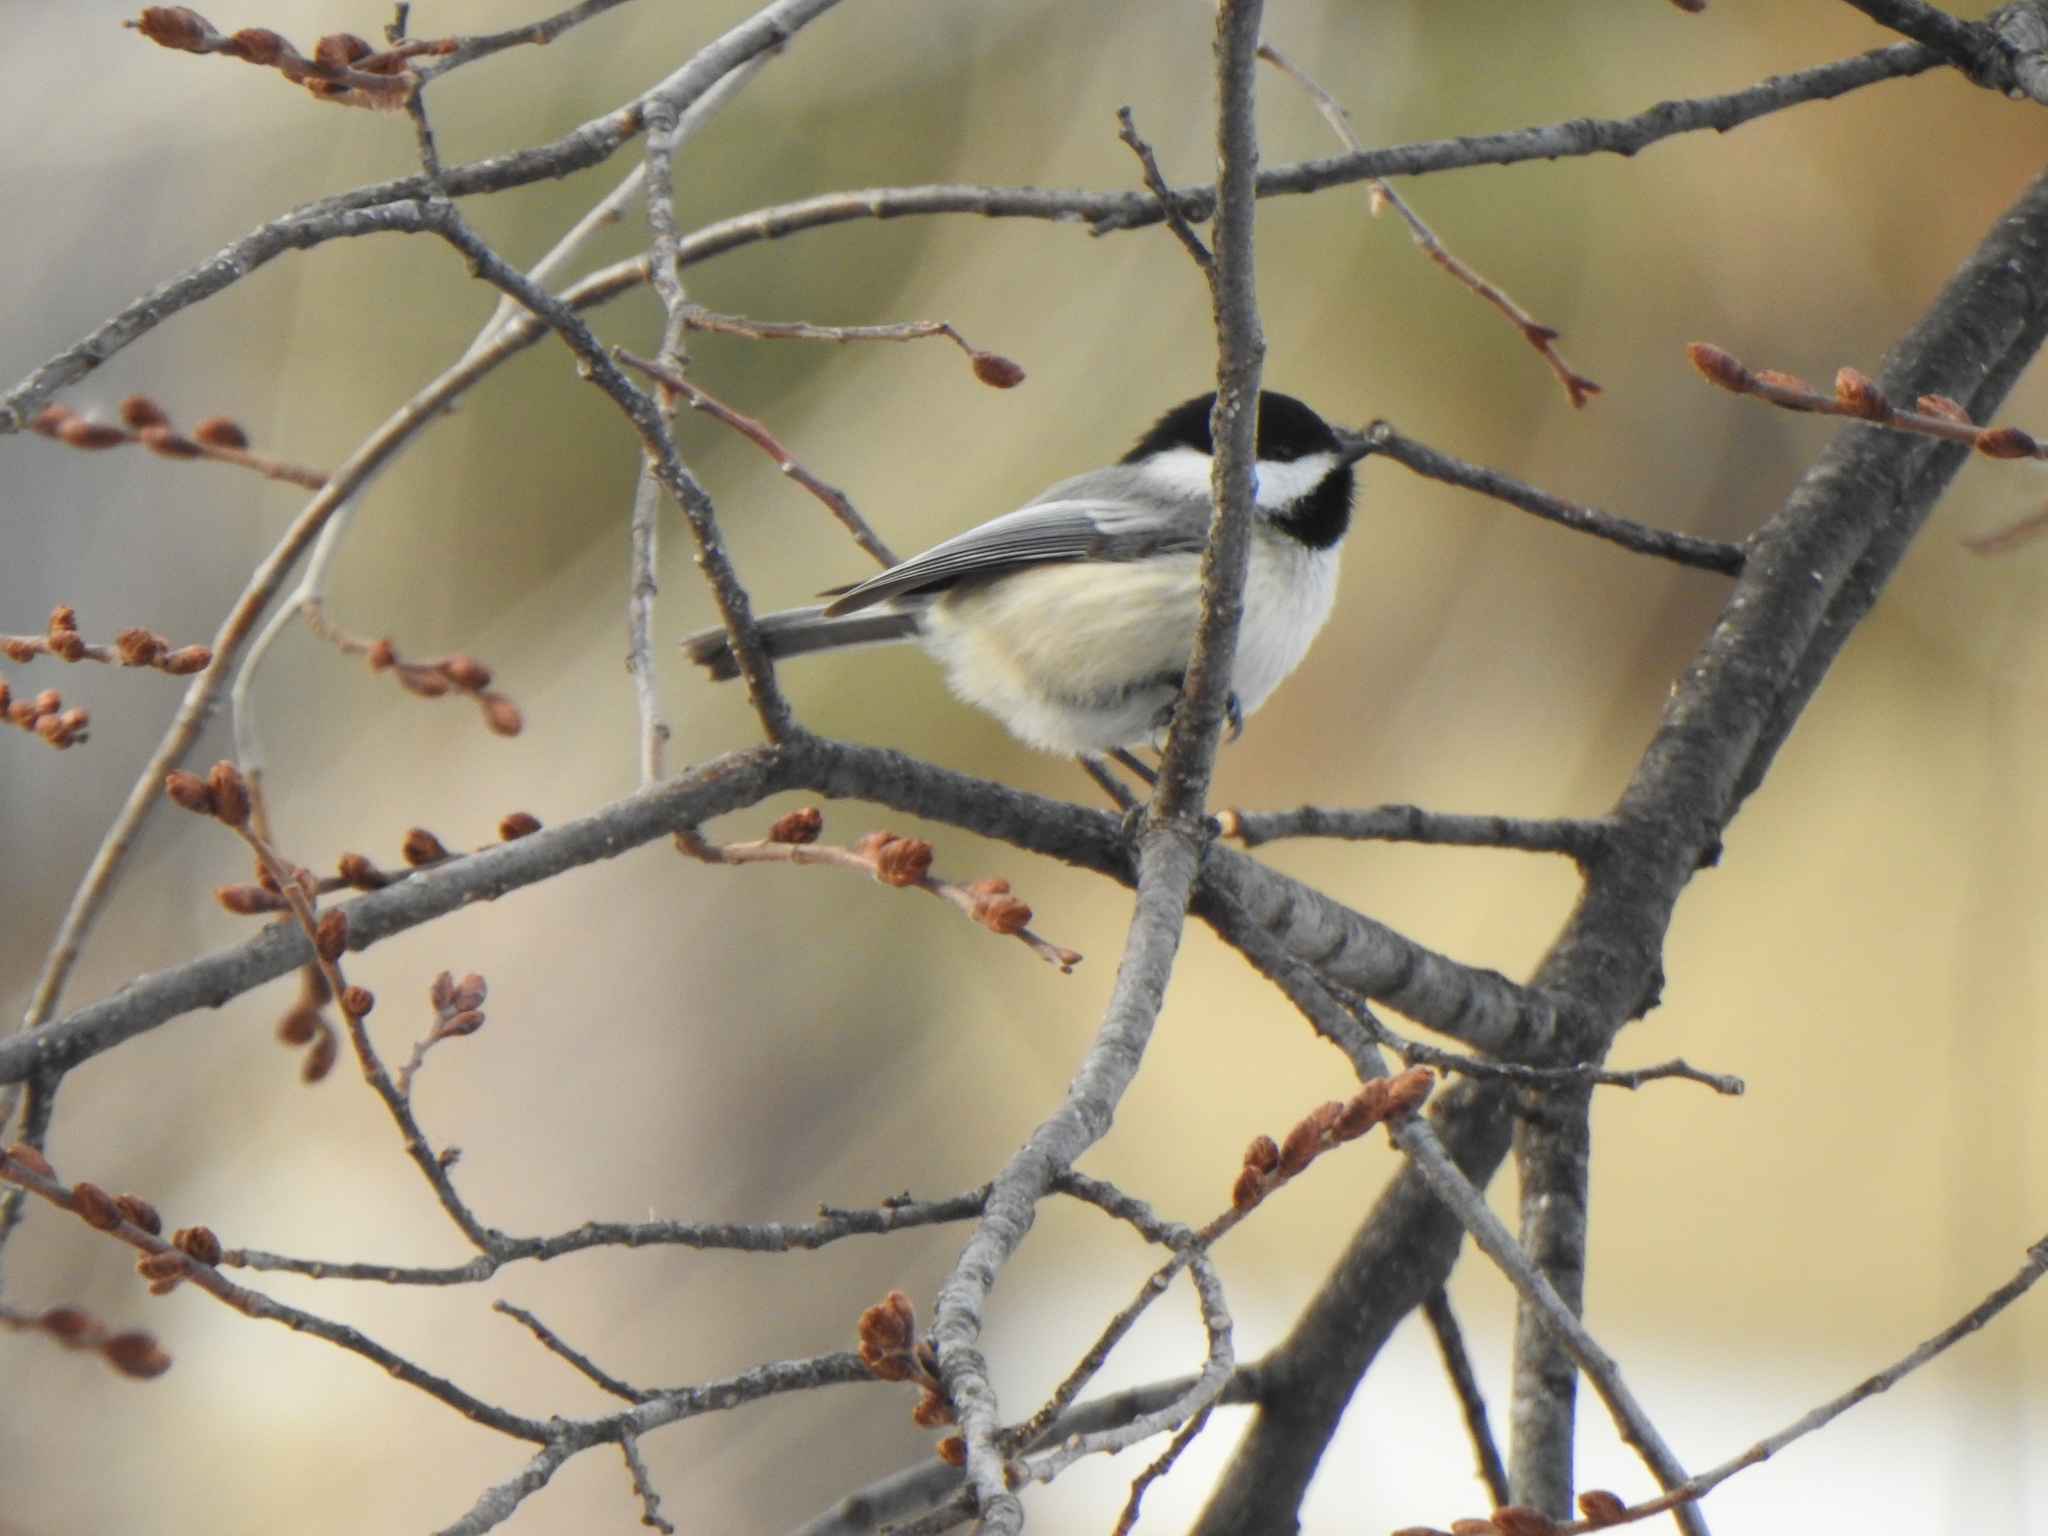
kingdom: Animalia
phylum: Chordata
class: Aves
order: Passeriformes
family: Paridae
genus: Poecile
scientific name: Poecile atricapillus
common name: Black-capped chickadee
